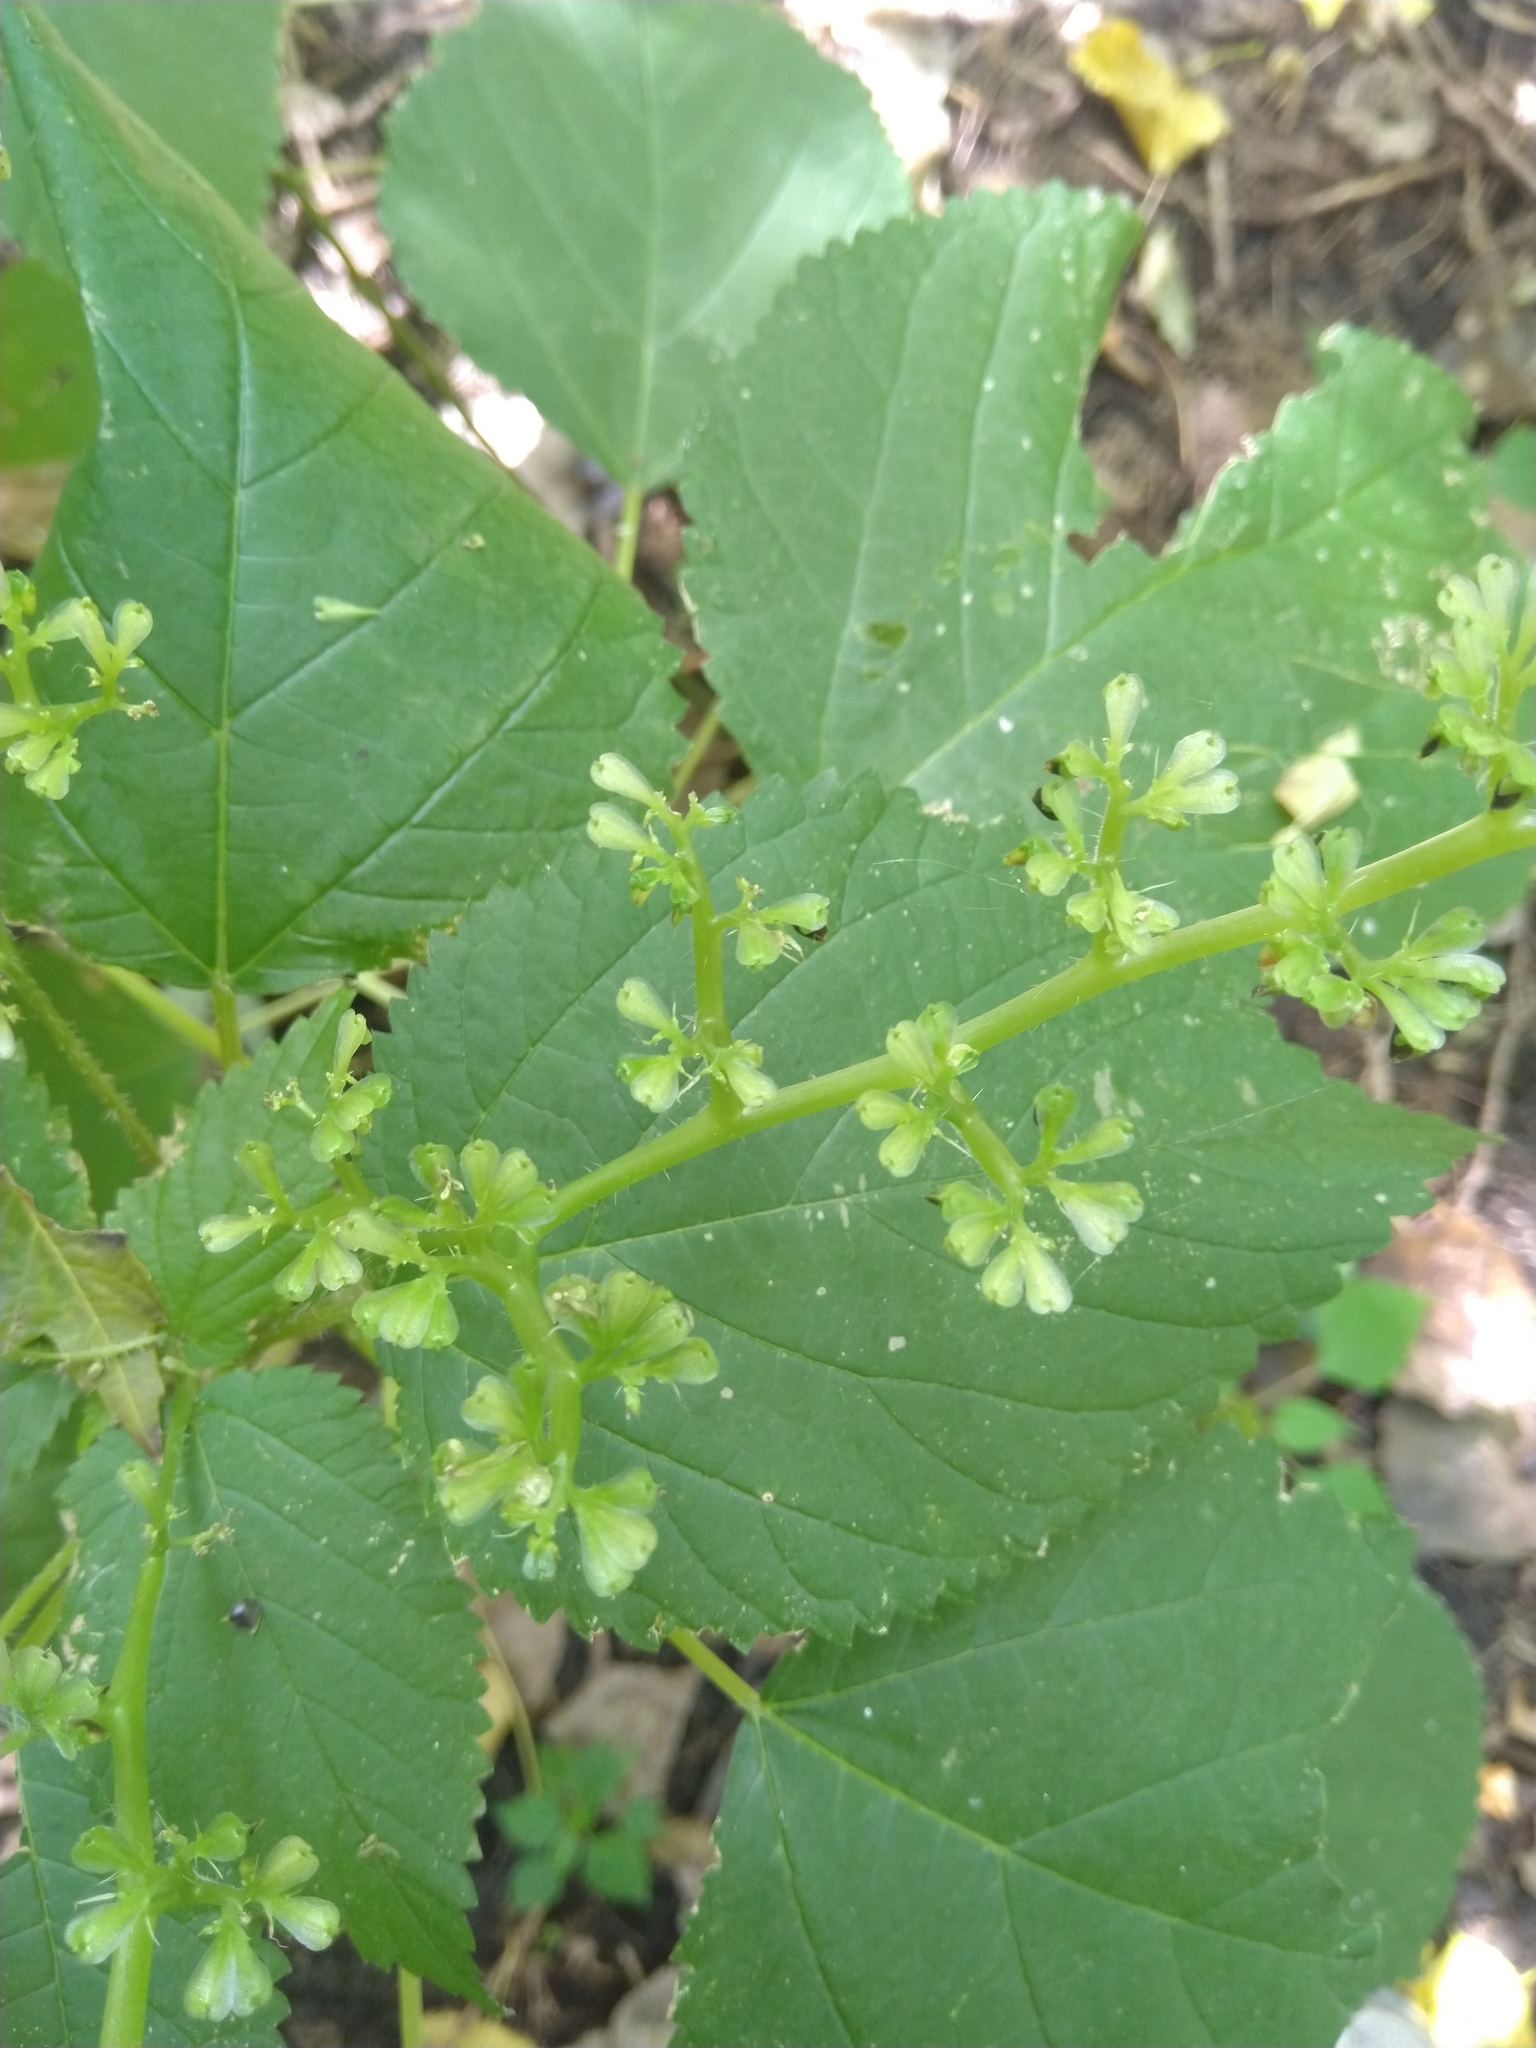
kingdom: Plantae
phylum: Tracheophyta
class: Magnoliopsida
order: Rosales
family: Urticaceae
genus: Laportea
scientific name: Laportea canadensis
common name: Canada nettle
